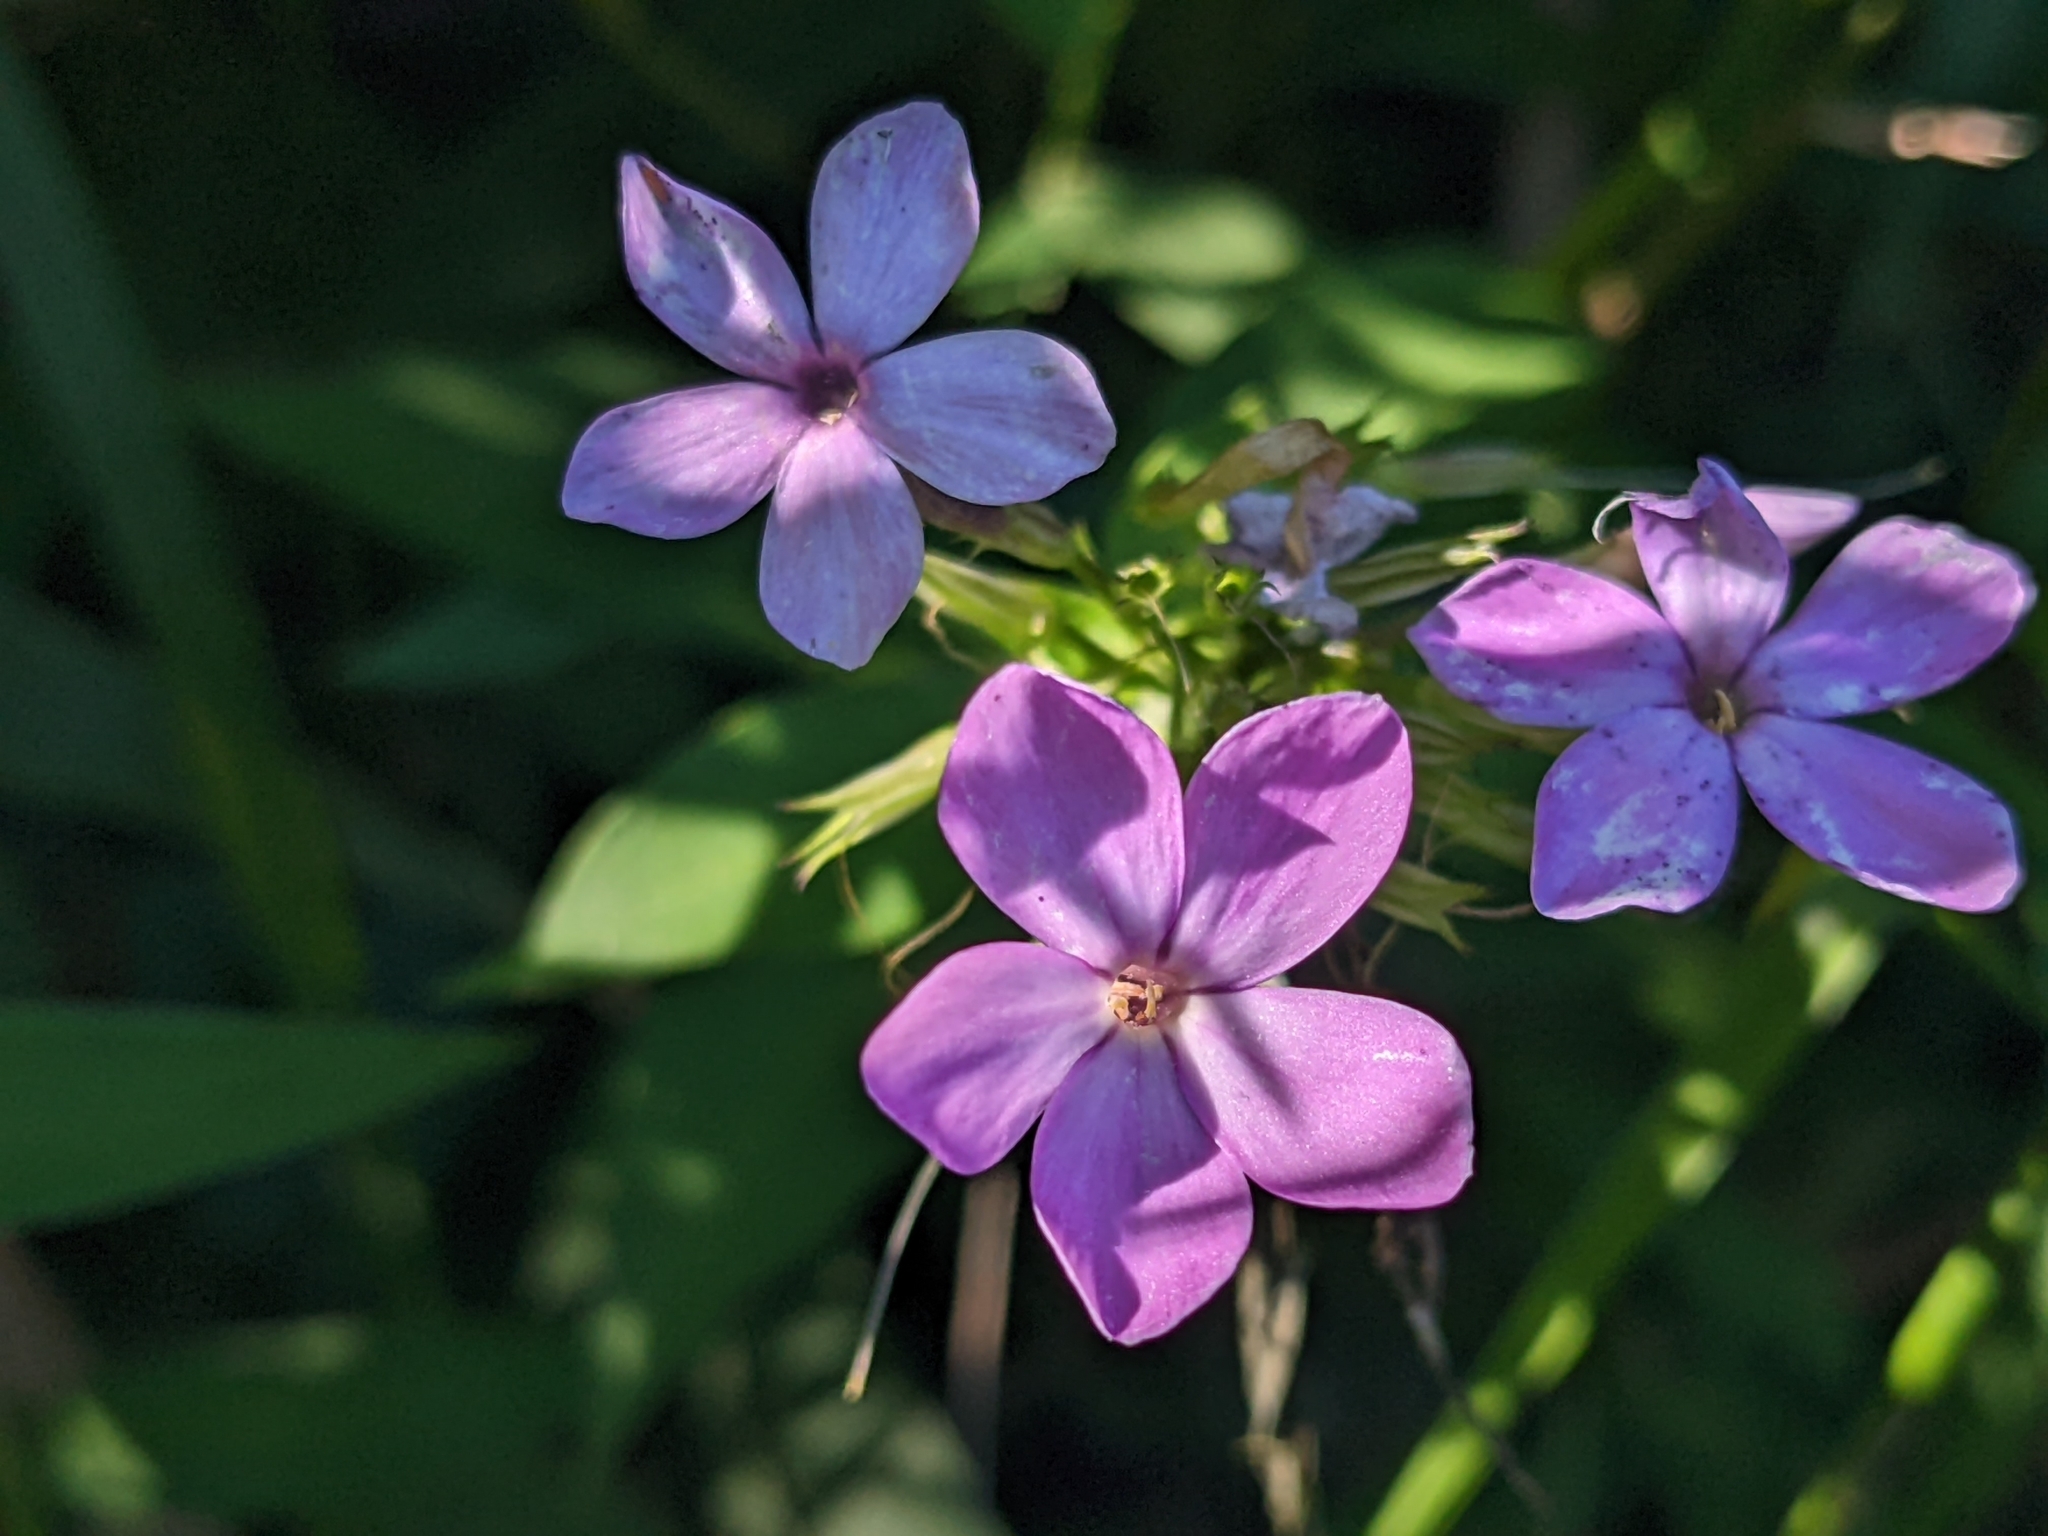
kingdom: Plantae
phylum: Tracheophyta
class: Magnoliopsida
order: Ericales
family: Polemoniaceae
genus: Phlox
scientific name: Phlox paniculata
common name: Fall phlox
